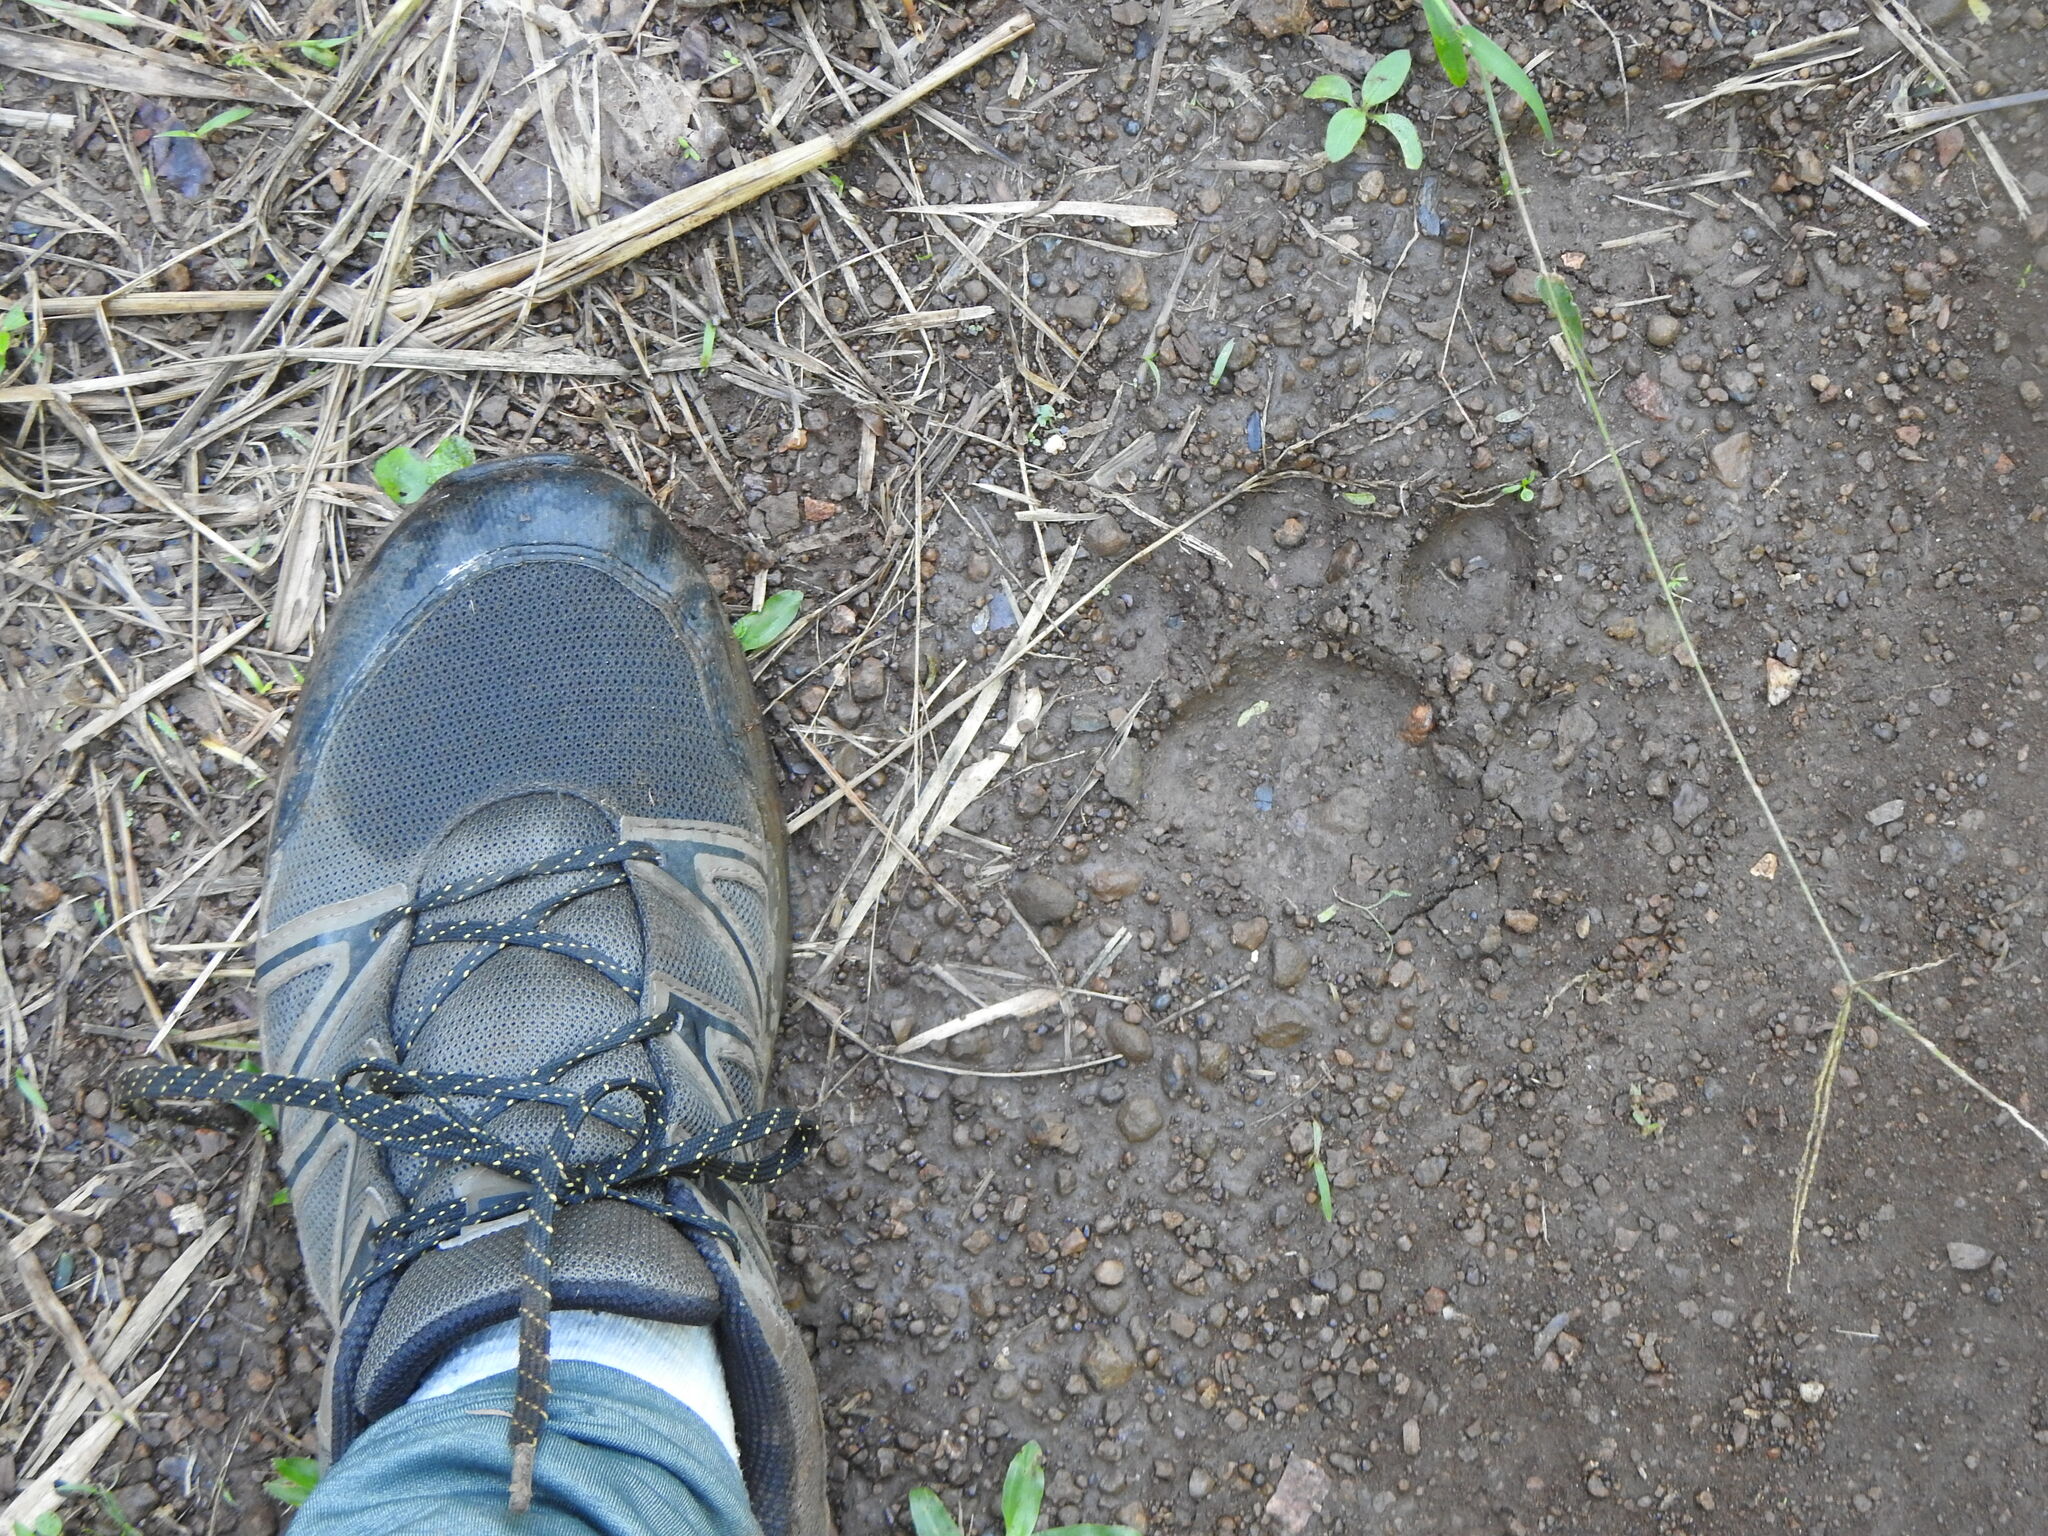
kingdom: Animalia
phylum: Chordata
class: Mammalia
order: Carnivora
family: Felidae
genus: Panthera
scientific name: Panthera onca
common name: Jaguar
